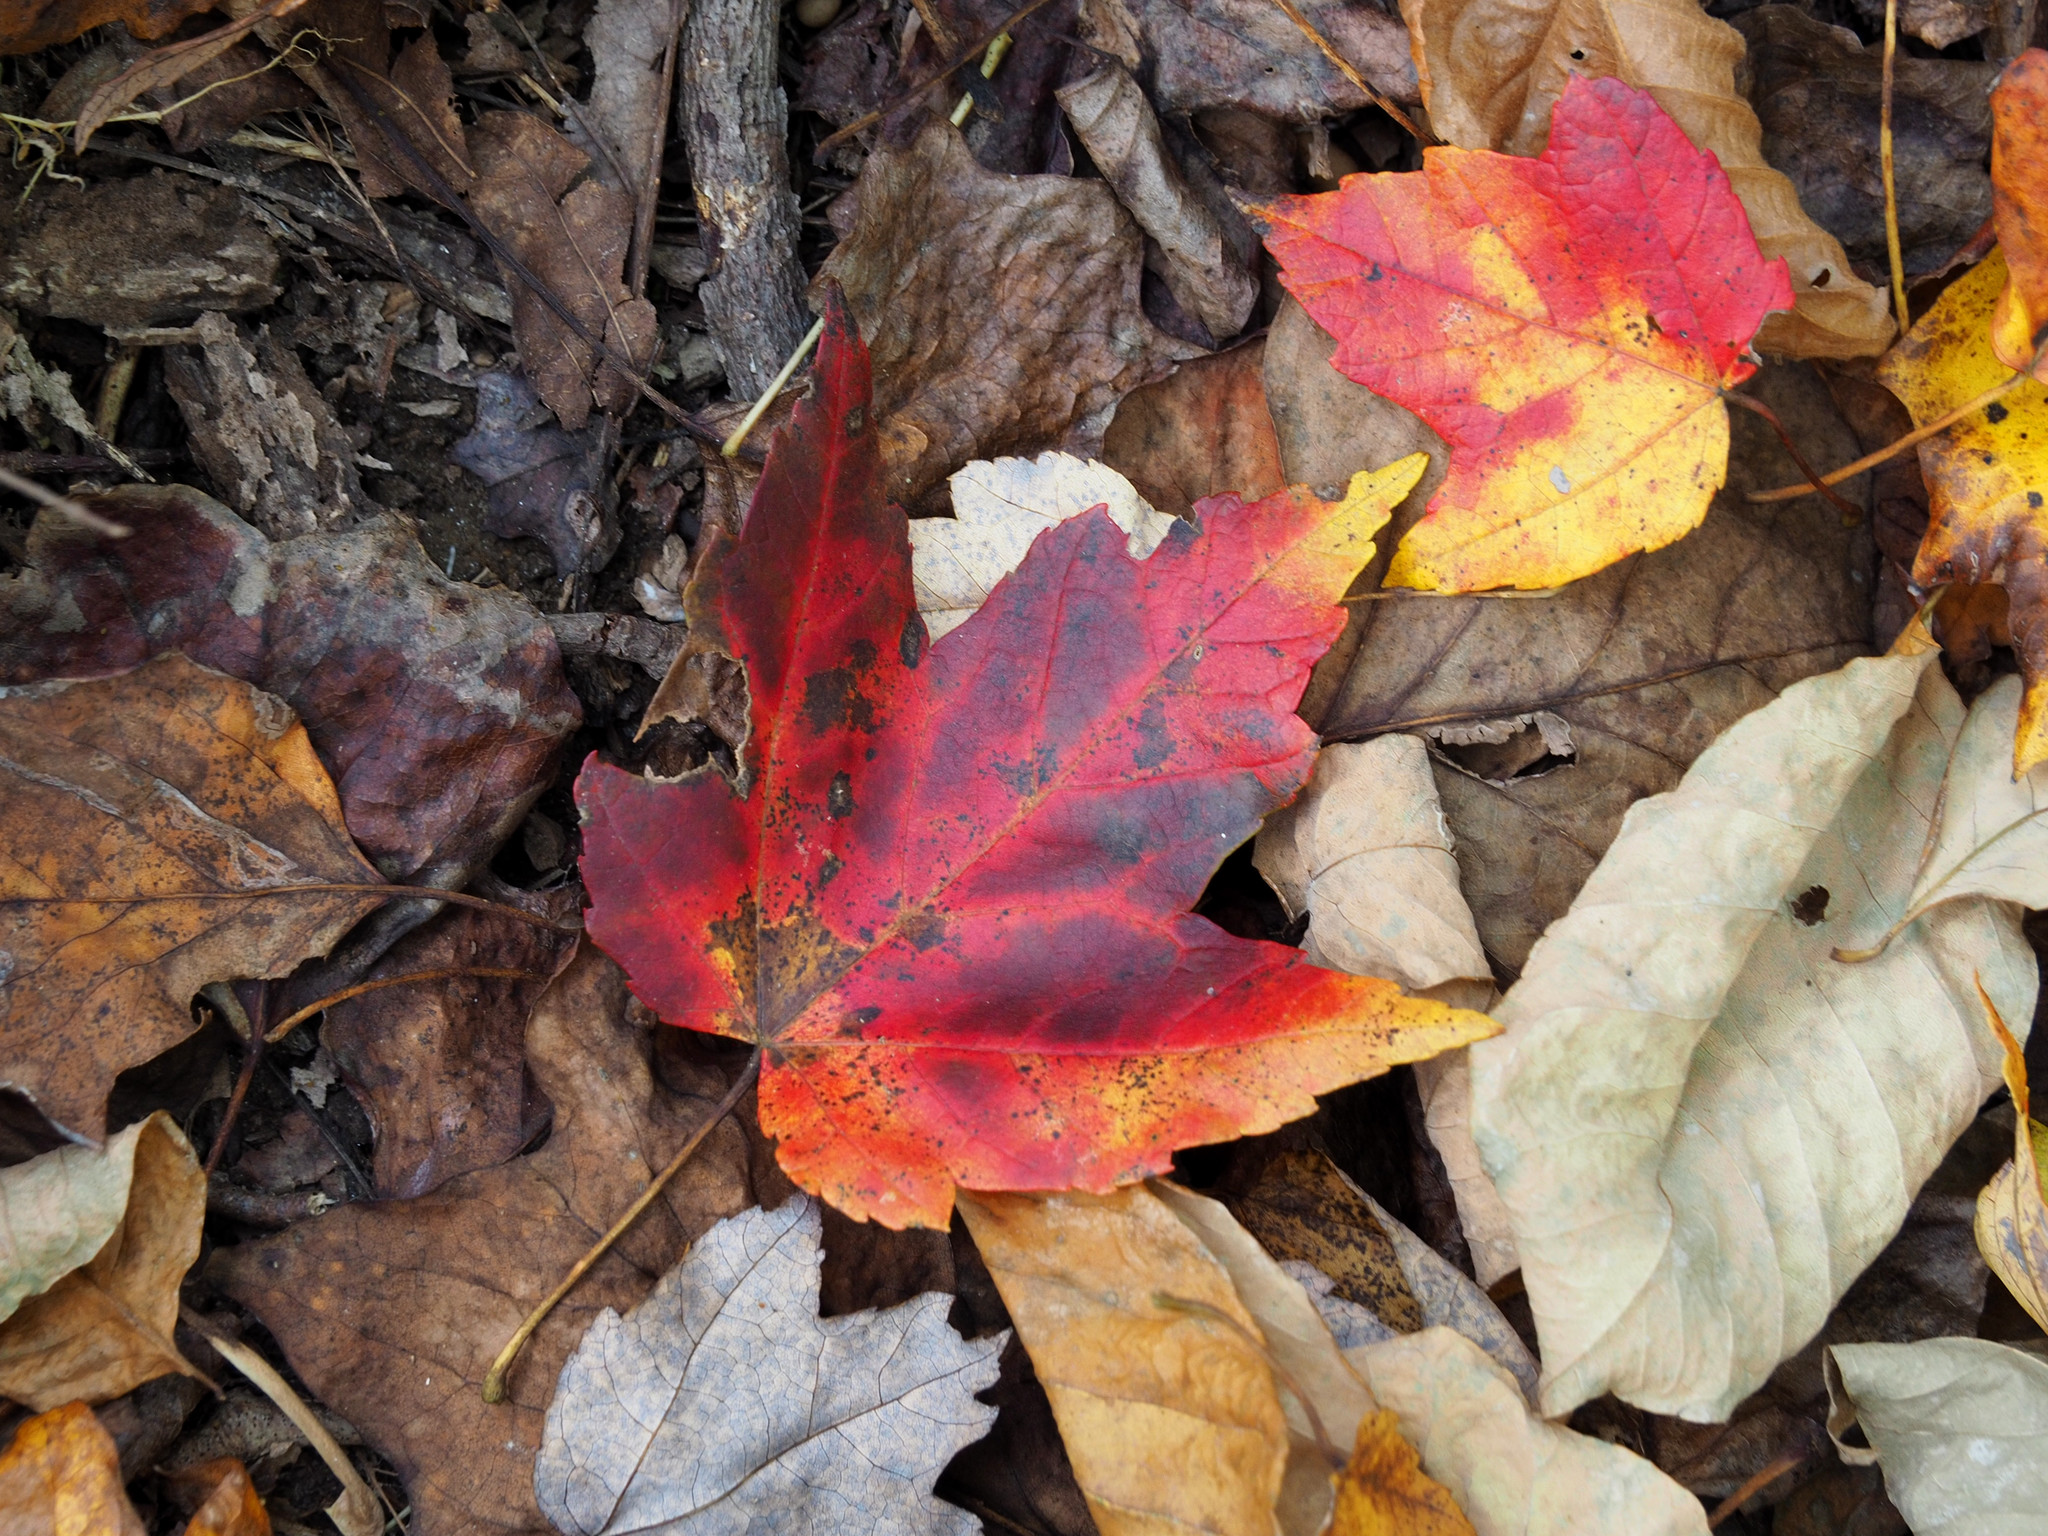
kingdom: Plantae
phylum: Tracheophyta
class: Magnoliopsida
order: Sapindales
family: Sapindaceae
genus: Acer
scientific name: Acer rubrum
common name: Red maple
